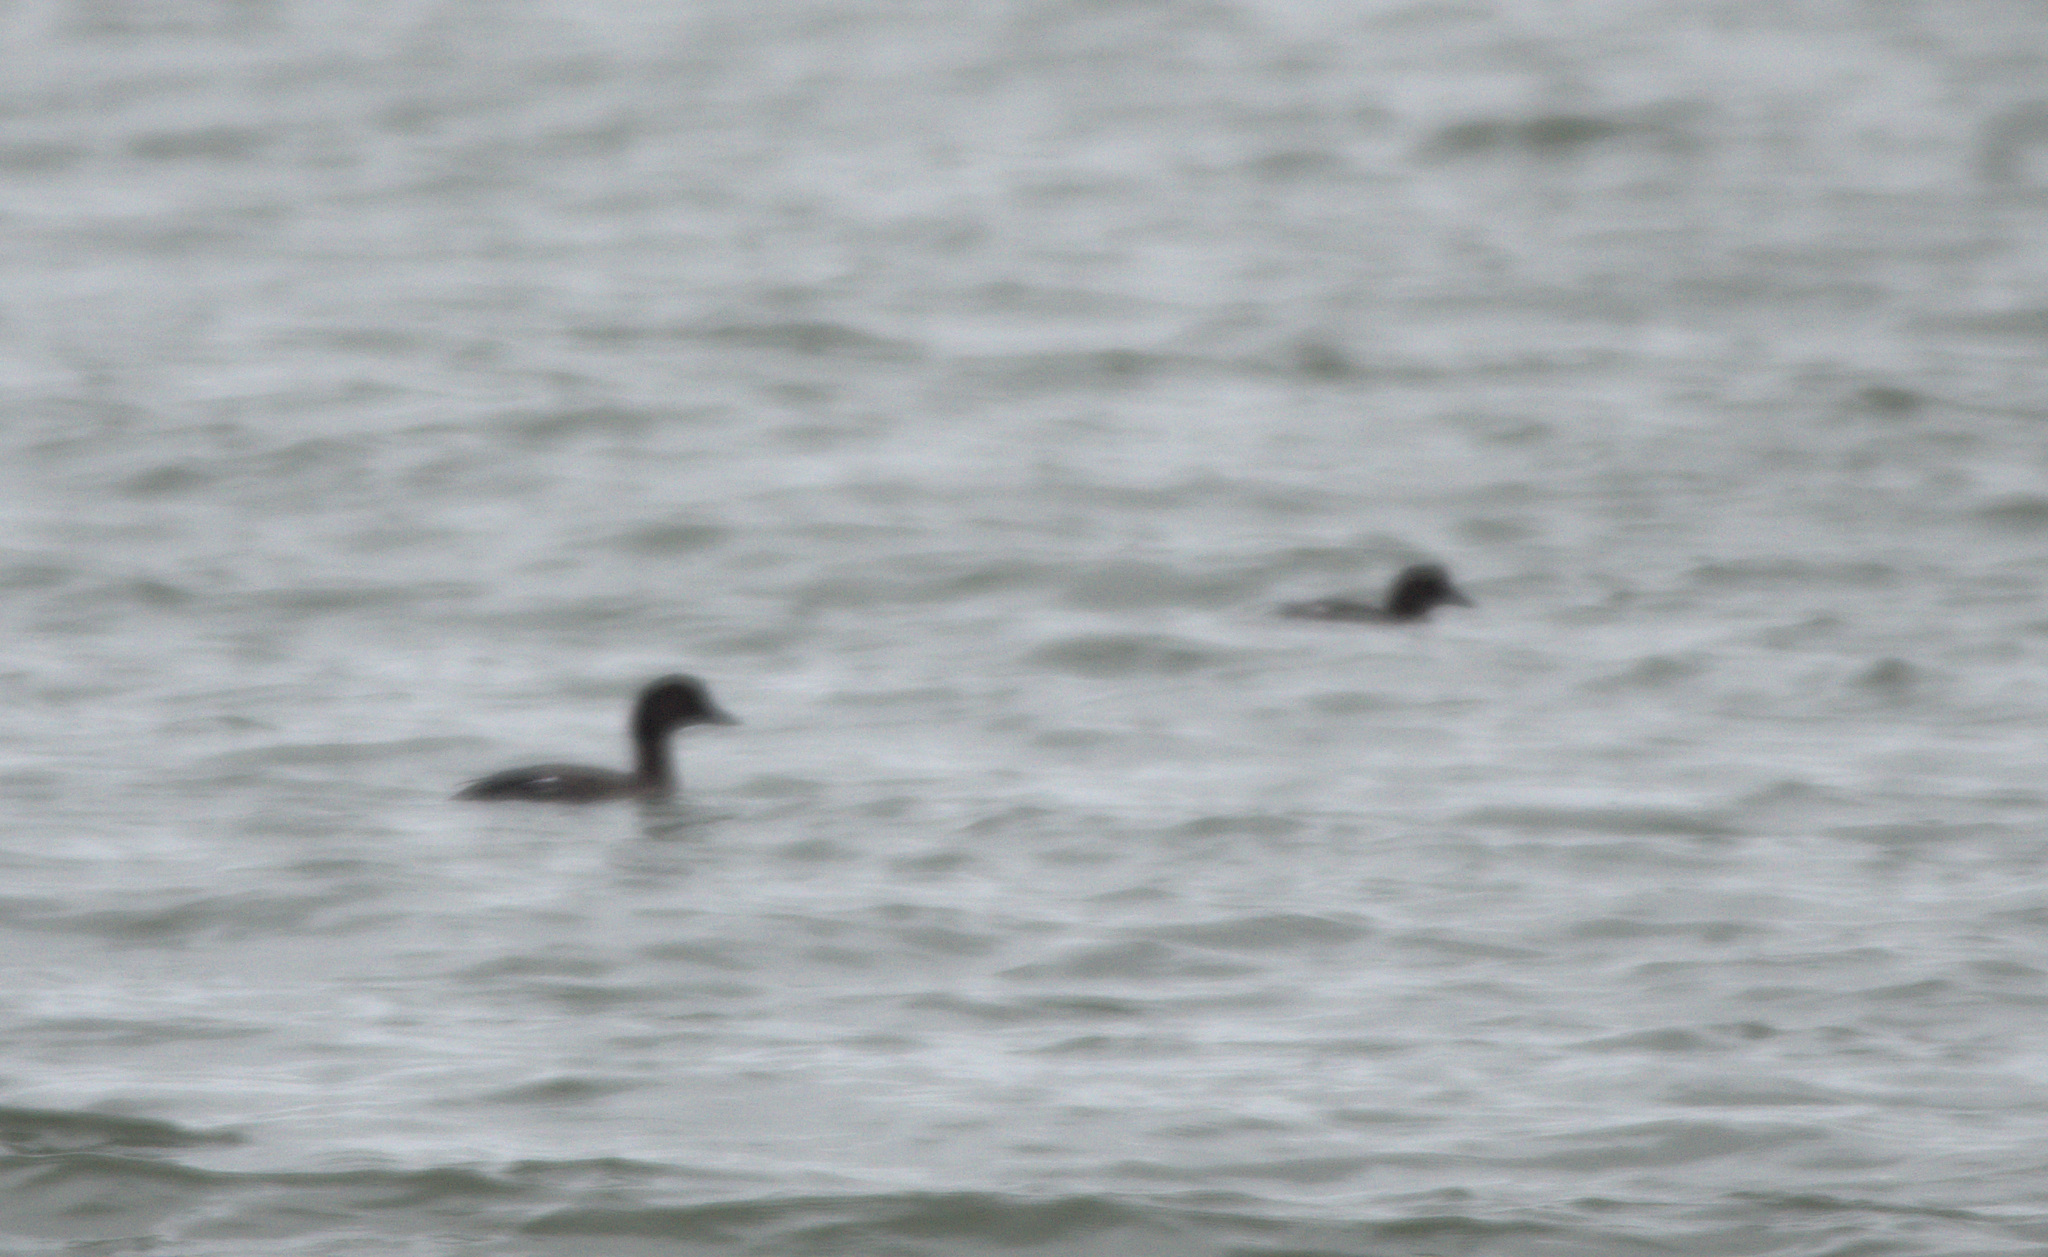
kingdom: Animalia
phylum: Chordata
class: Aves
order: Anseriformes
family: Anatidae
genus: Bucephala
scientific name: Bucephala clangula
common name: Common goldeneye
